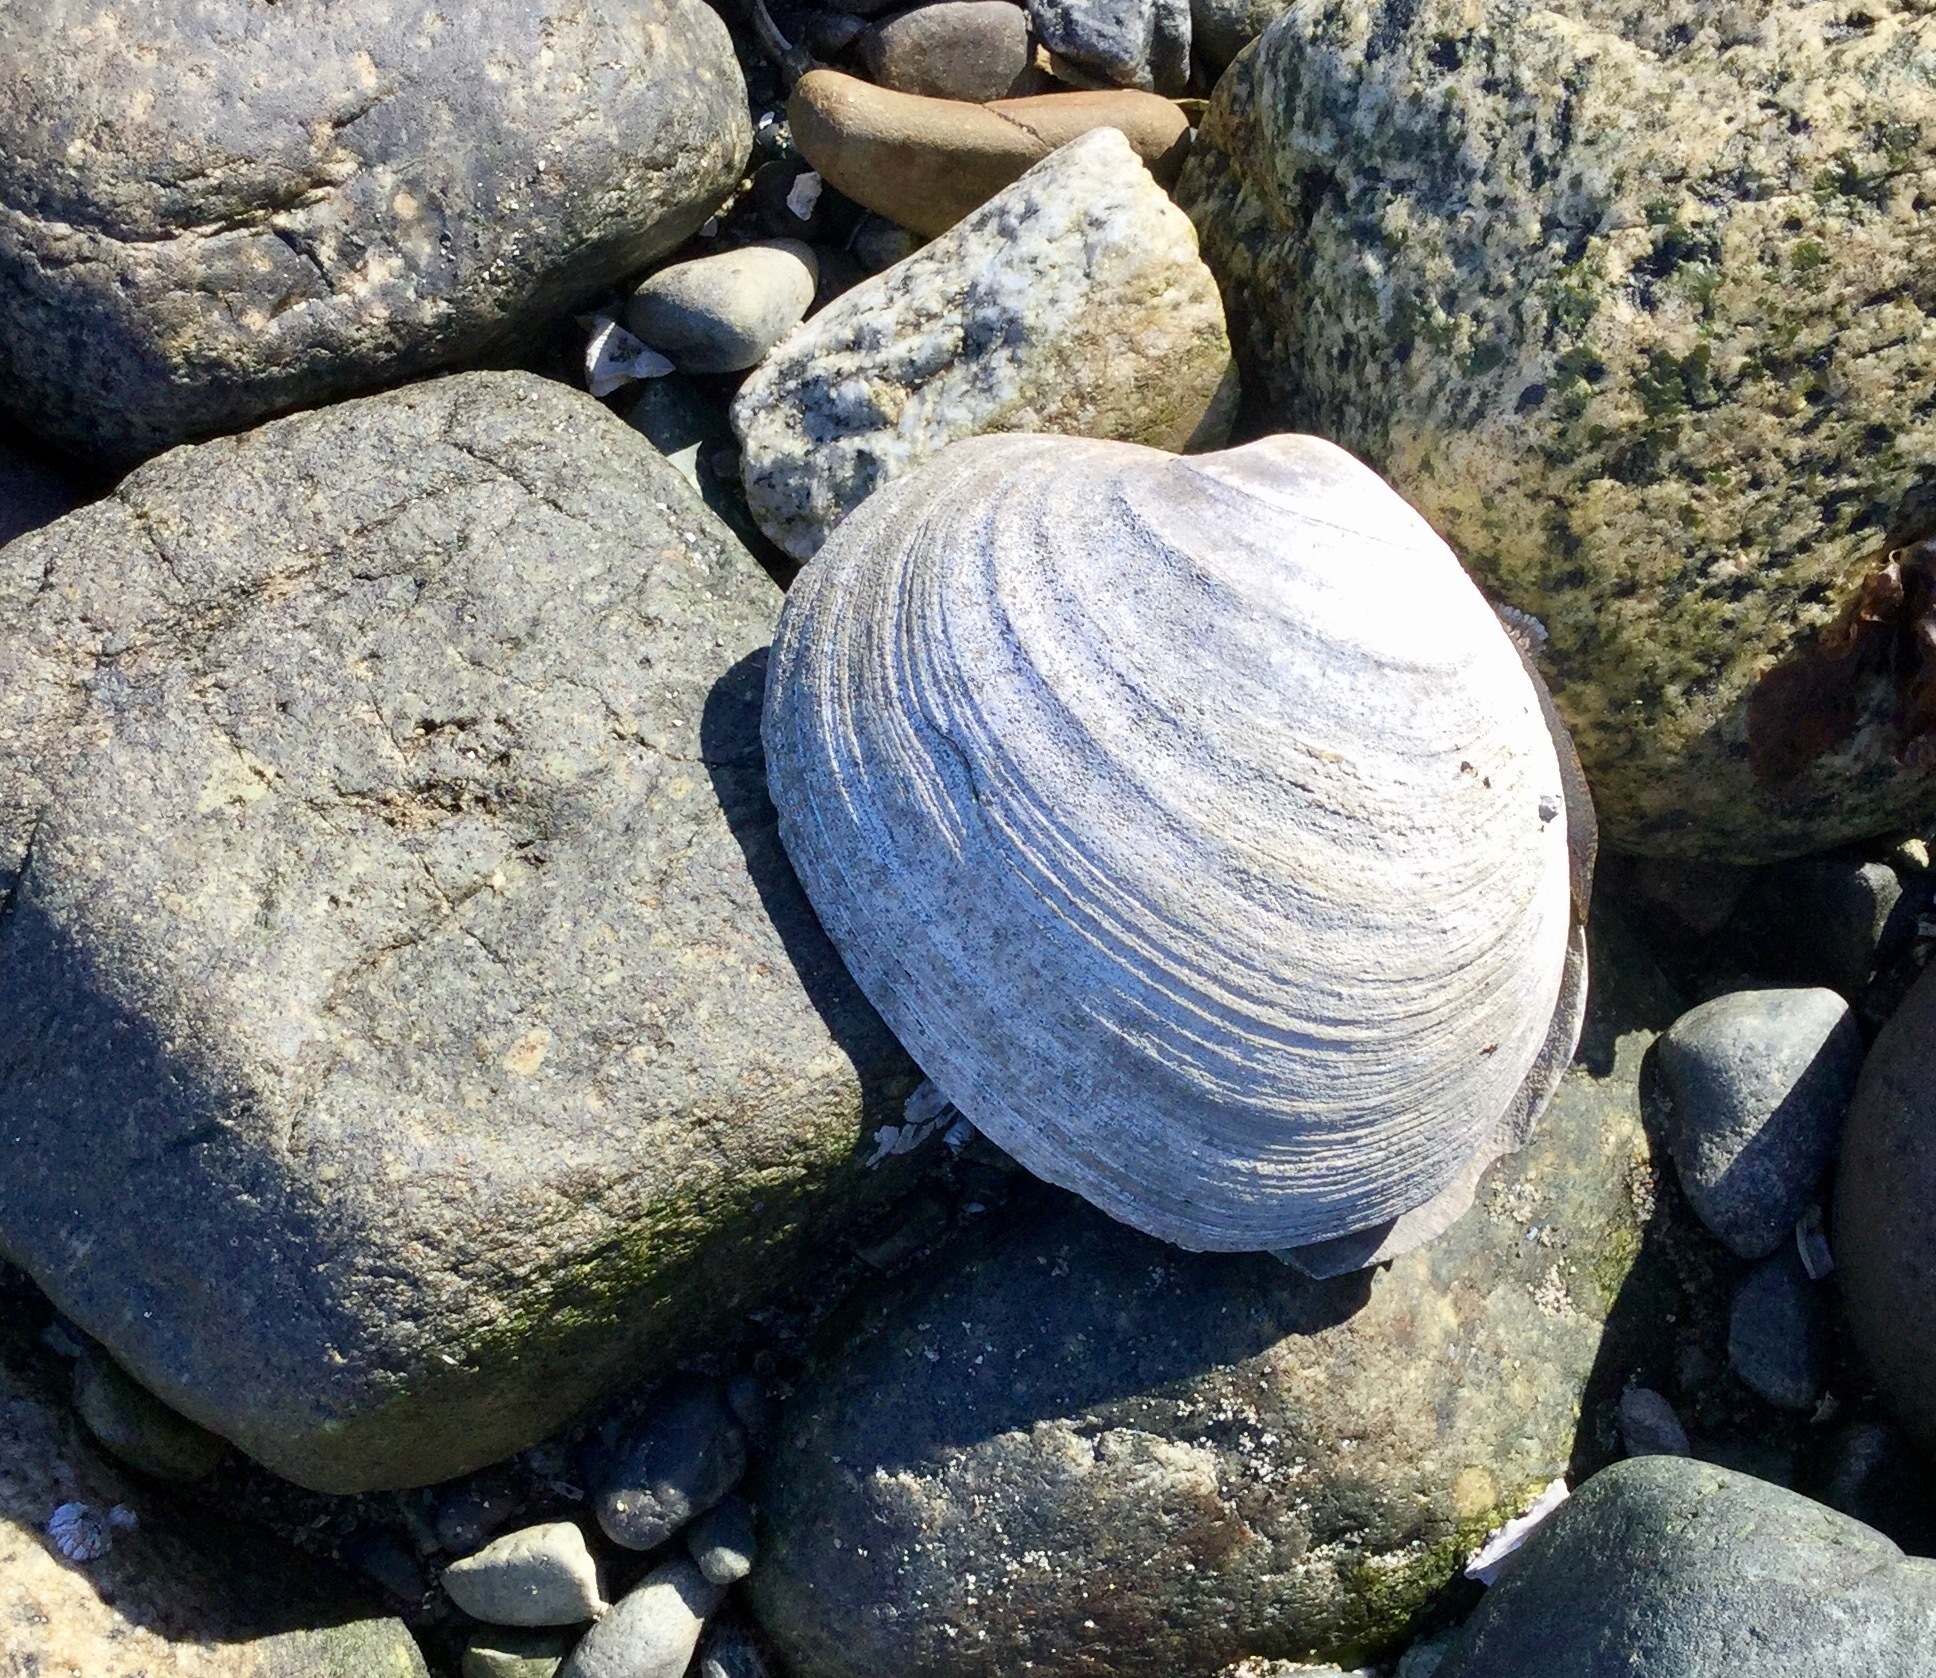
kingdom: Animalia
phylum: Mollusca
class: Bivalvia
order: Venerida
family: Veneridae
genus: Saxidomus
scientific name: Saxidomus gigantea
